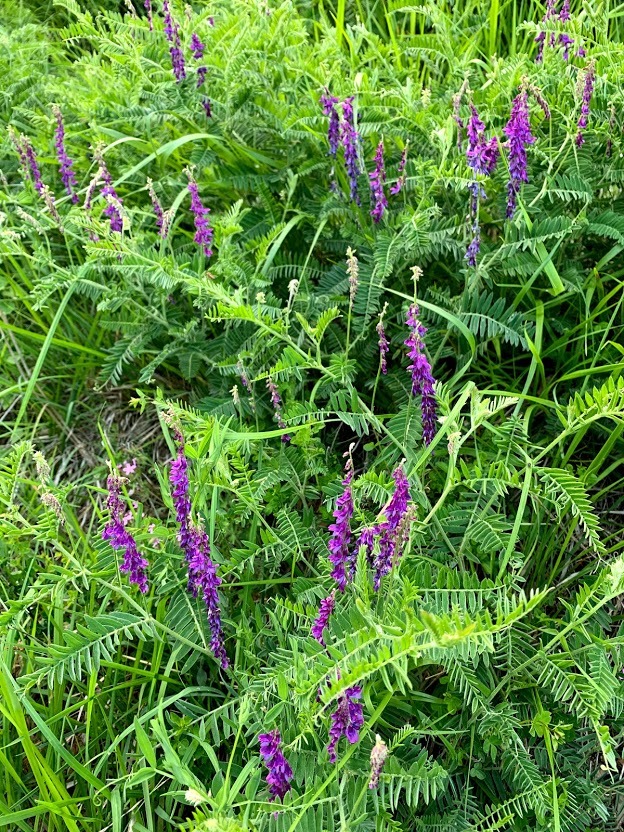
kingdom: Plantae
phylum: Tracheophyta
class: Magnoliopsida
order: Fabales
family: Fabaceae
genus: Vicia
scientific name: Vicia villosa
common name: Fodder vetch
